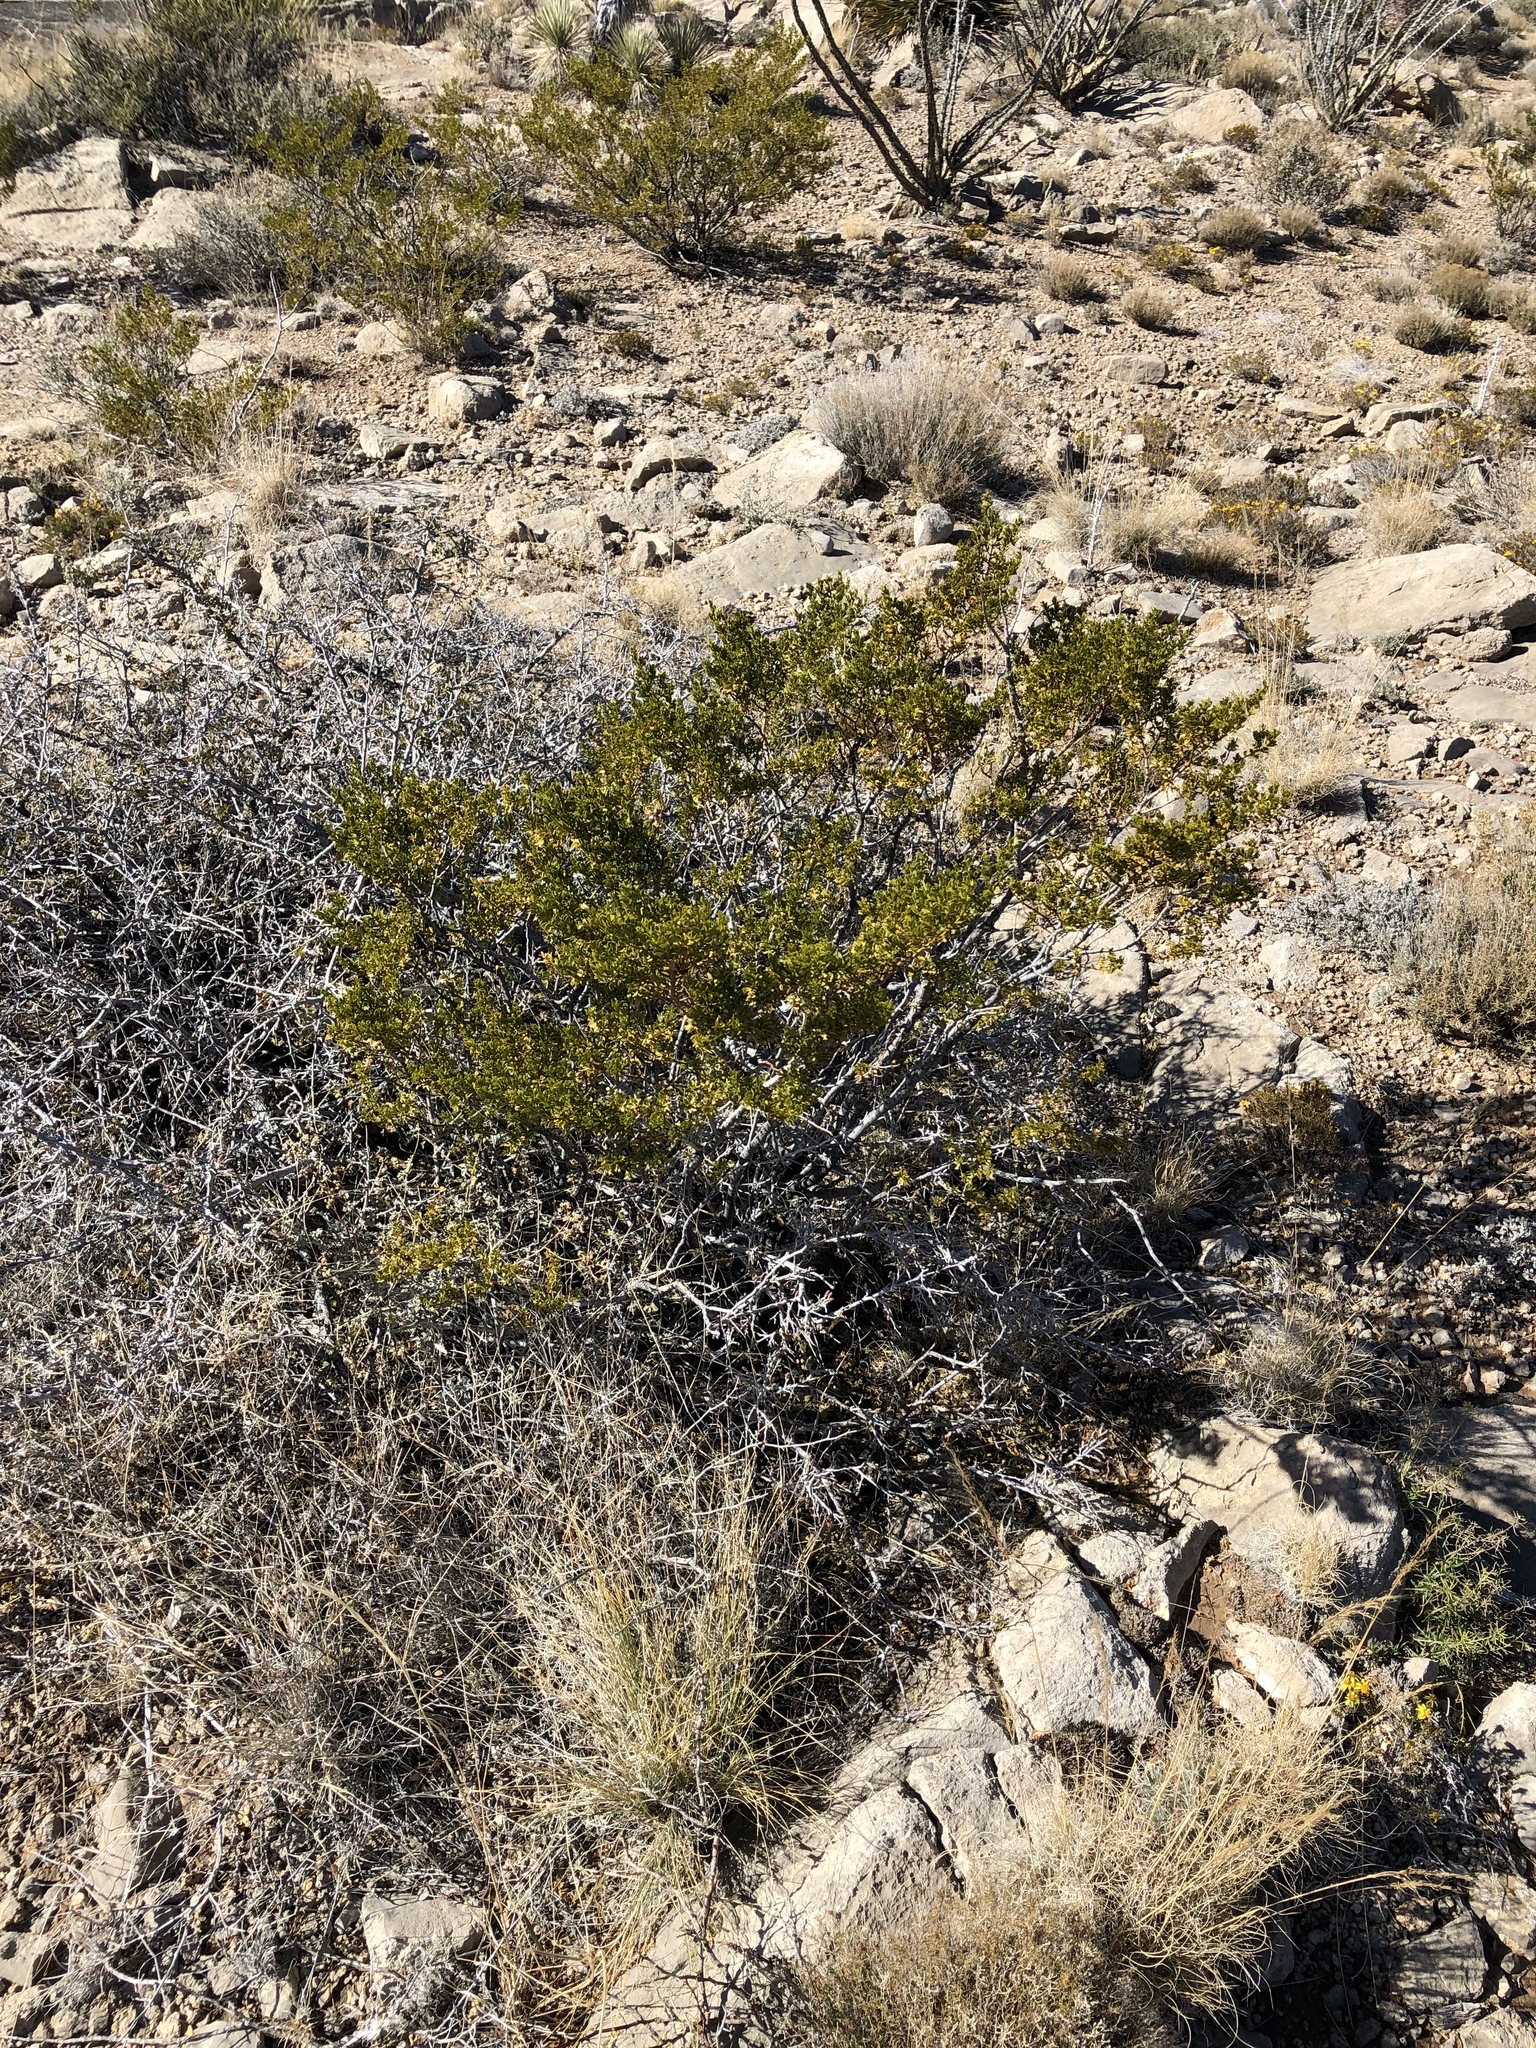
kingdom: Plantae
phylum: Tracheophyta
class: Magnoliopsida
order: Zygophyllales
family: Zygophyllaceae
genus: Larrea
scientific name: Larrea tridentata
